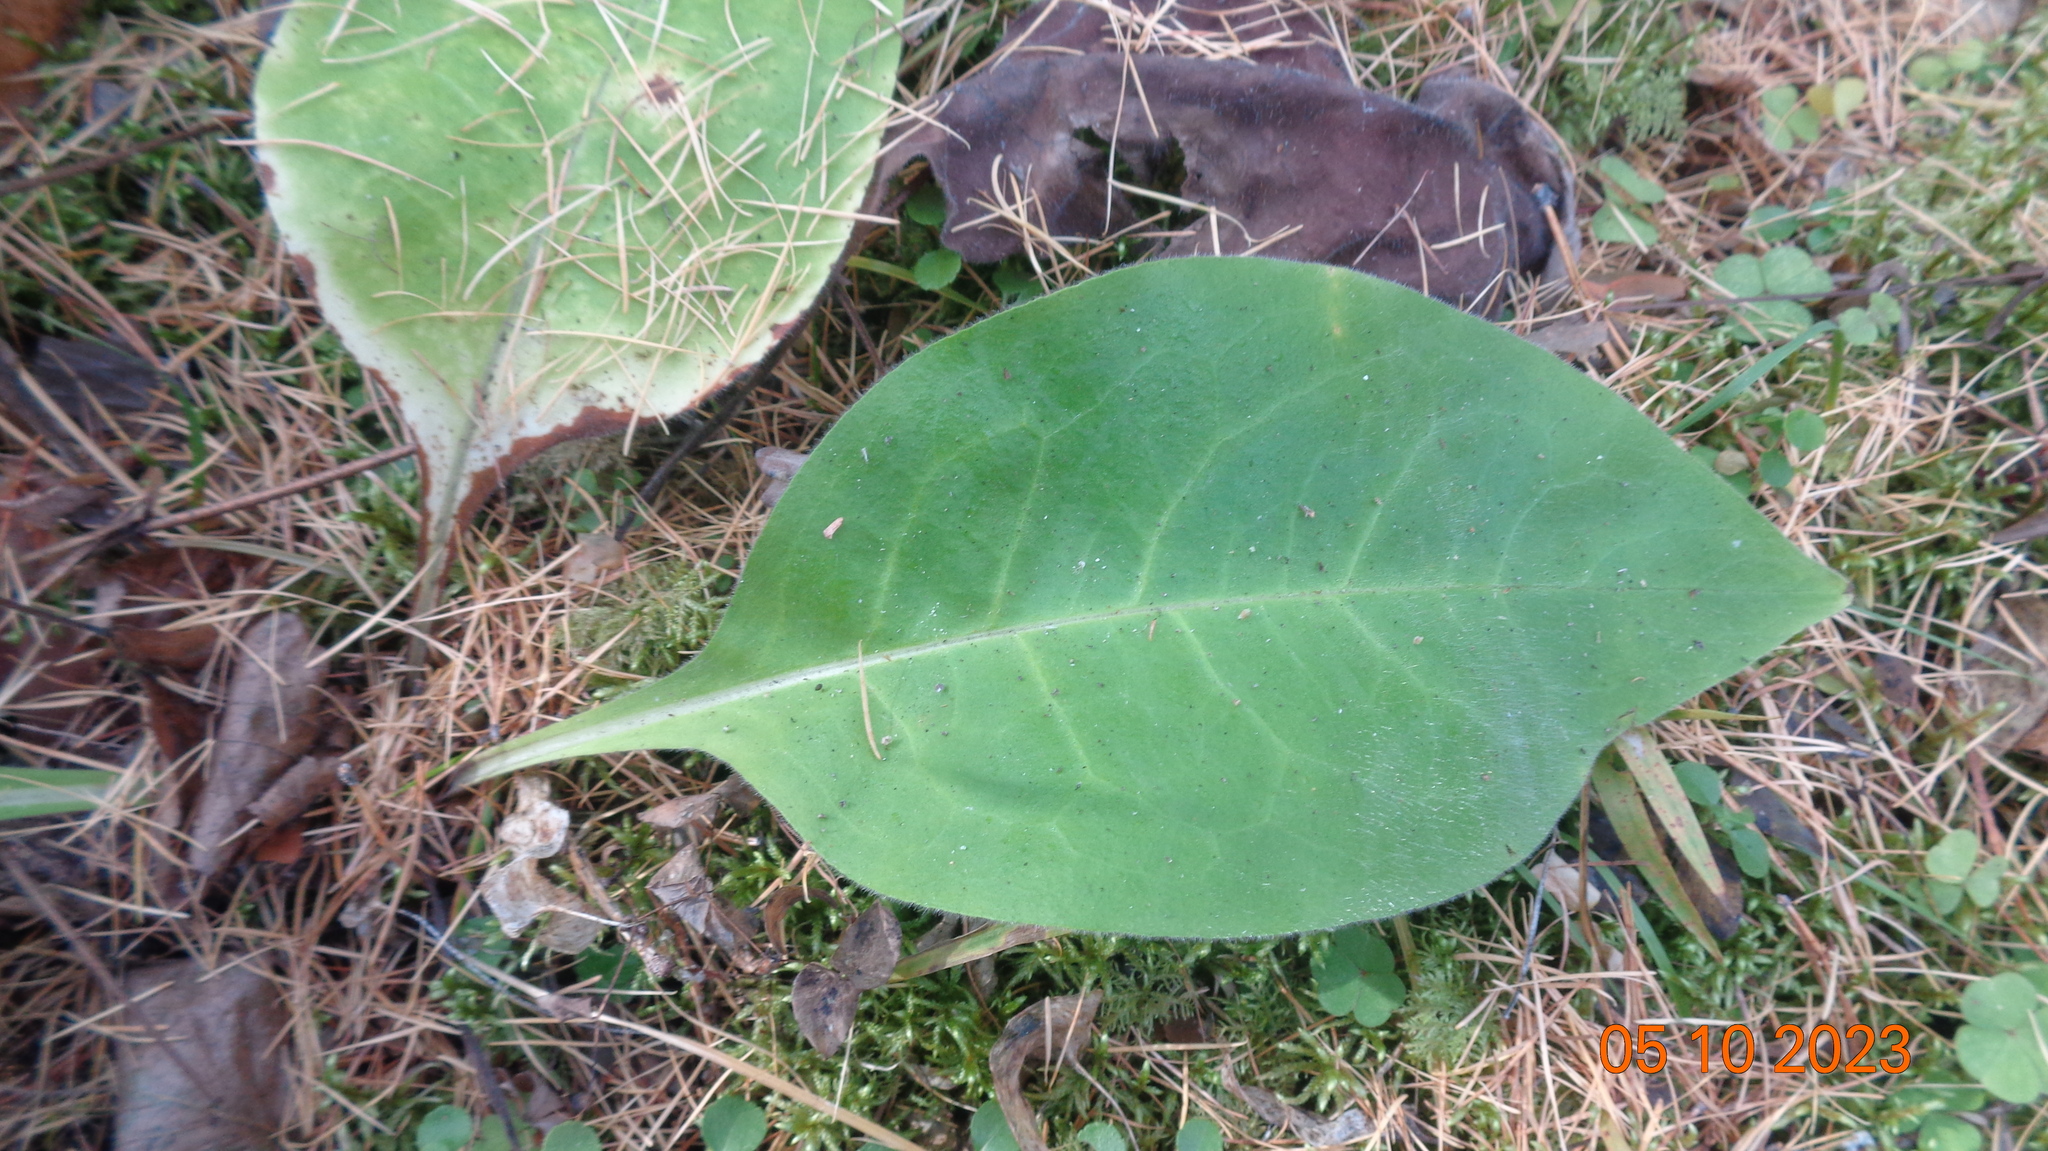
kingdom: Plantae
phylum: Tracheophyta
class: Magnoliopsida
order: Boraginales
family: Boraginaceae
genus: Pulmonaria
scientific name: Pulmonaria mollis
